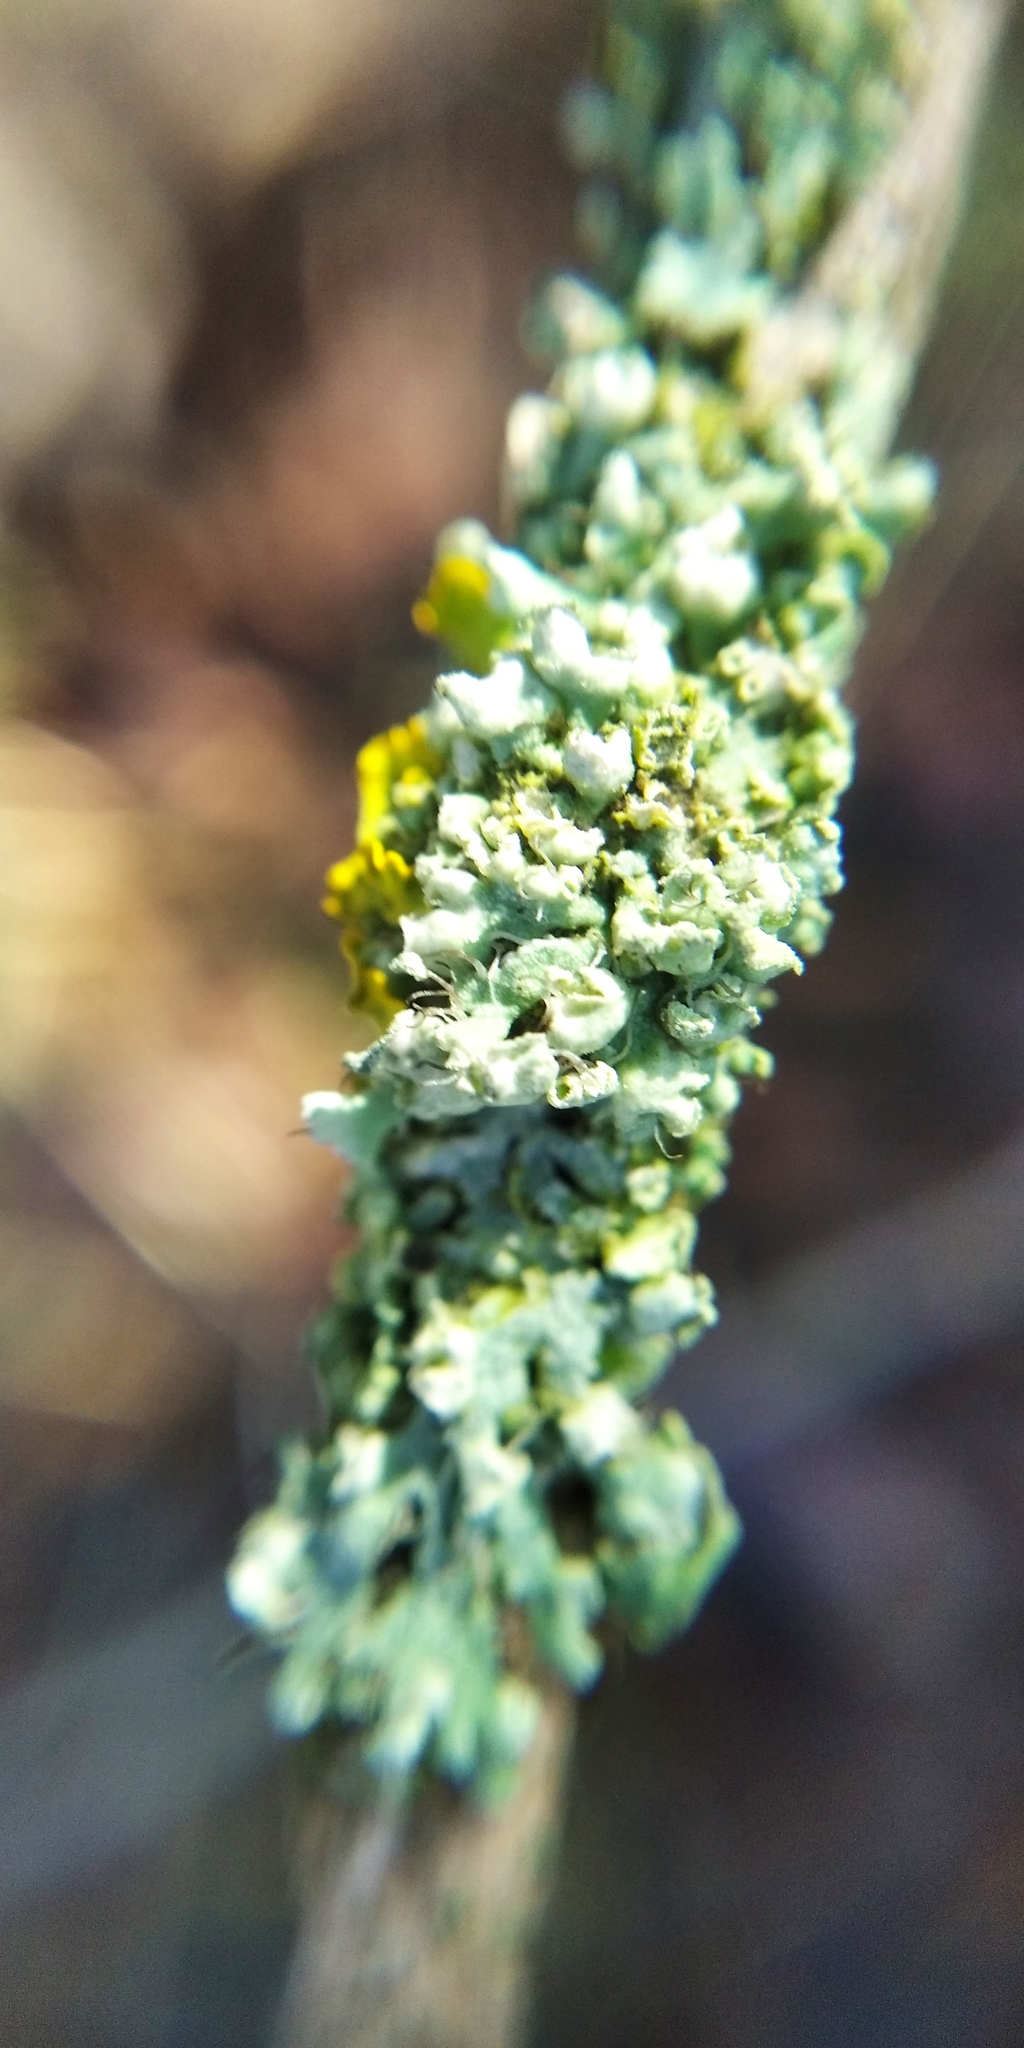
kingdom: Fungi
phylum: Ascomycota
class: Lecanoromycetes
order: Caliciales
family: Physciaceae
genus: Physcia
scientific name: Physcia adscendens
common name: Hooded rosette lichen
